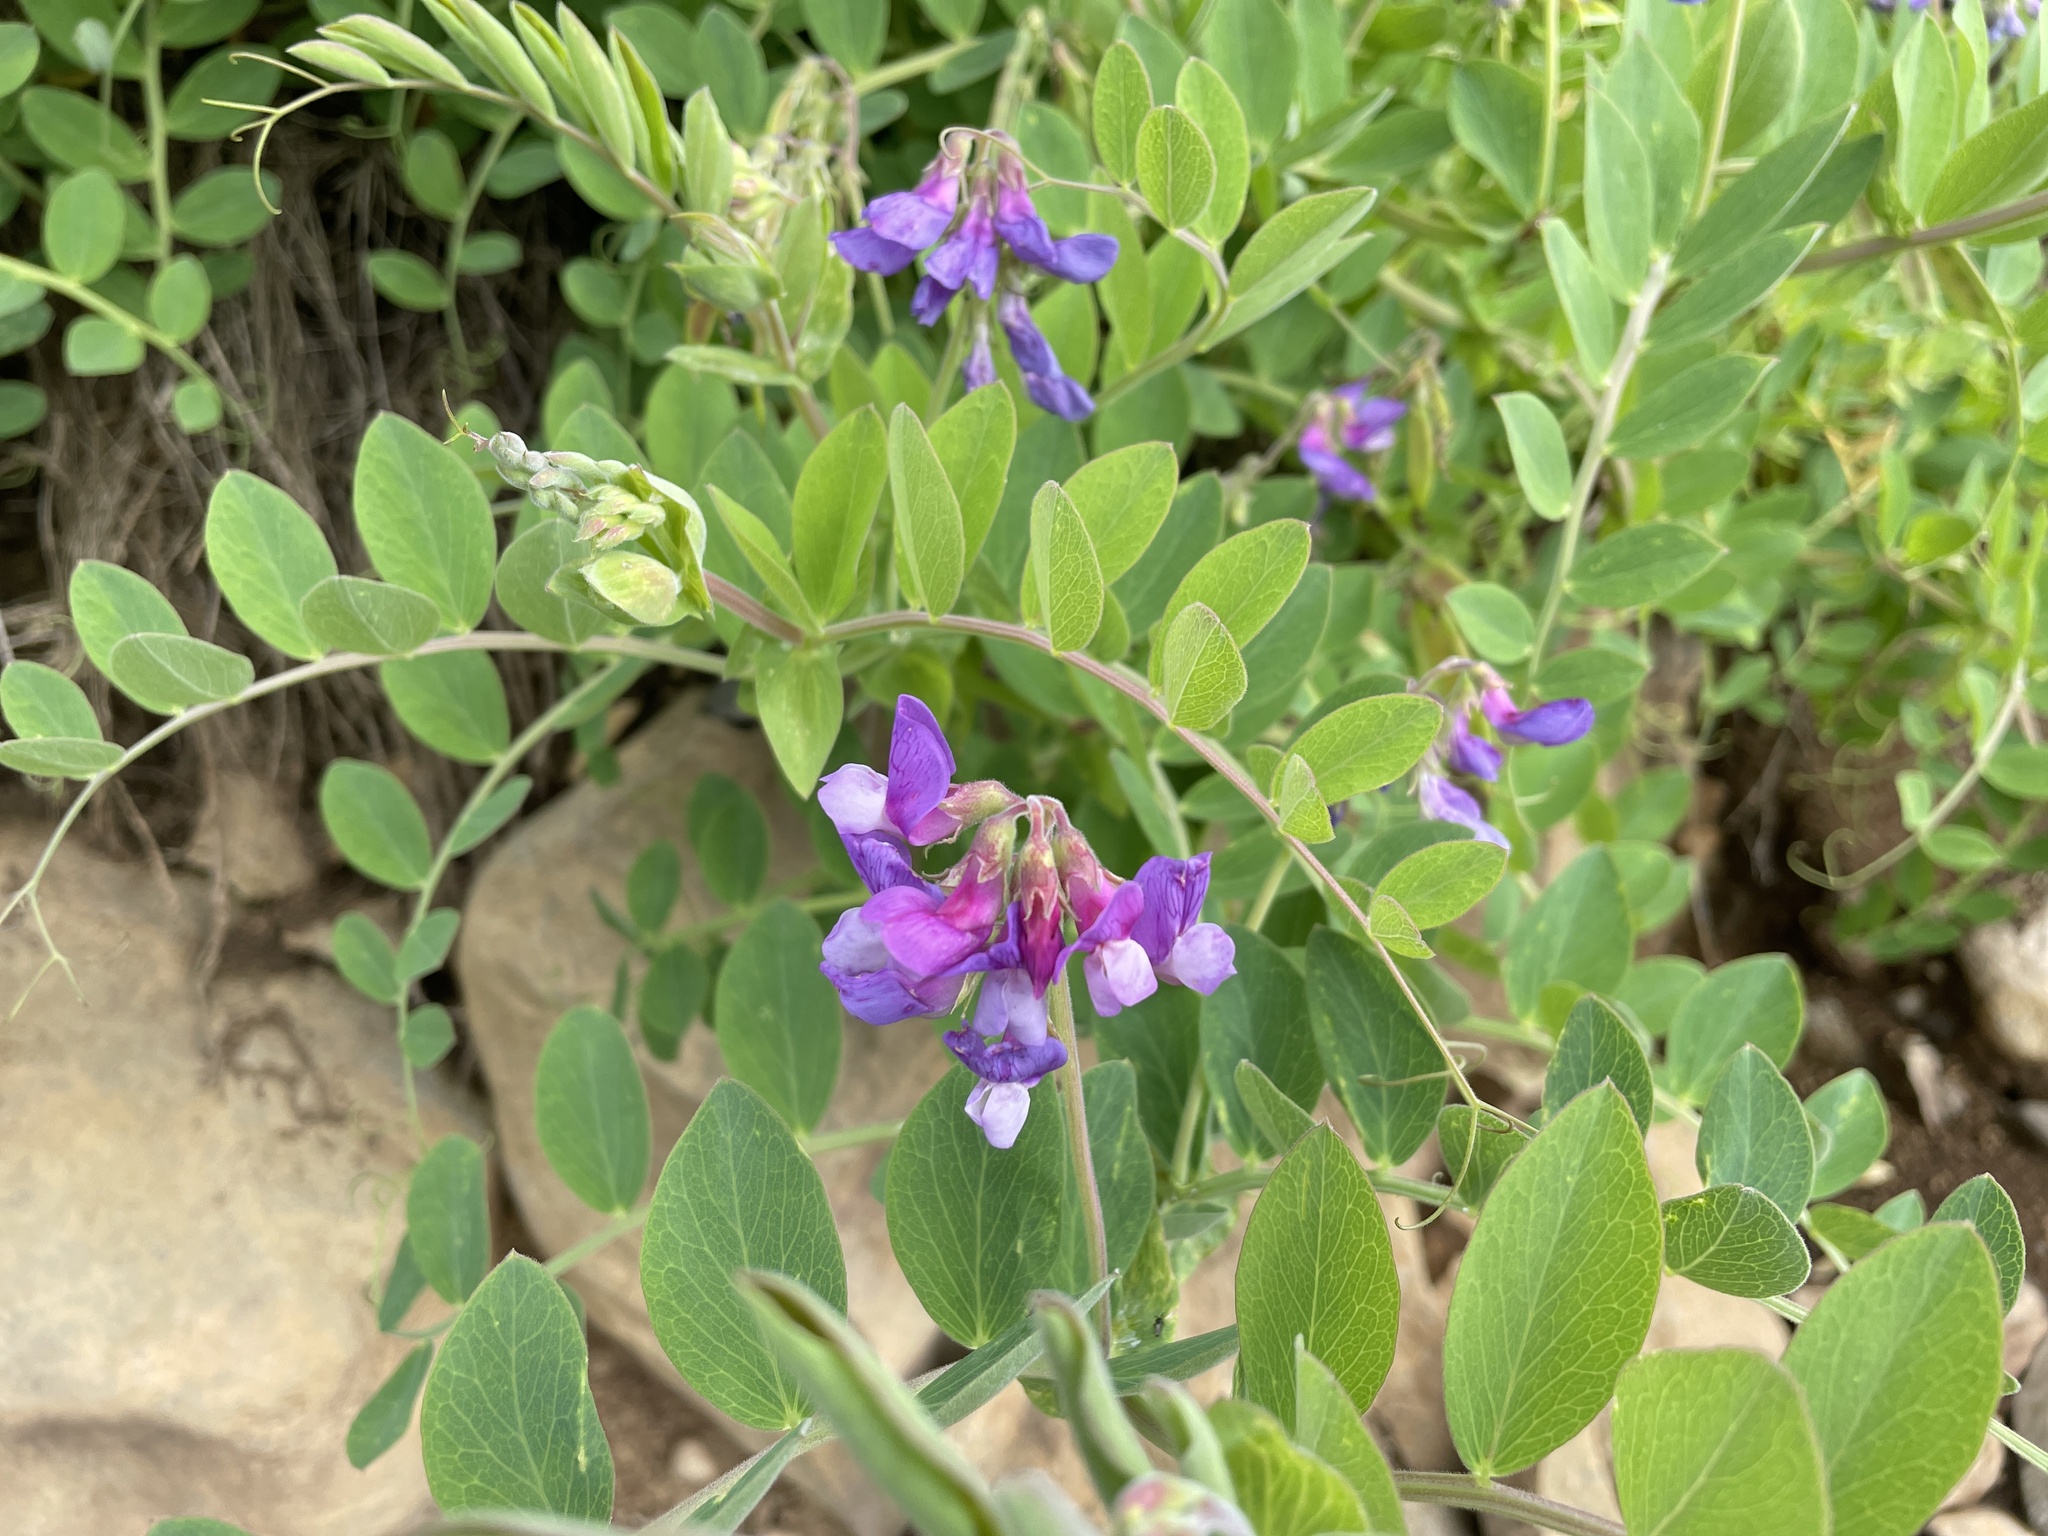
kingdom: Plantae
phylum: Tracheophyta
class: Magnoliopsida
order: Fabales
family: Fabaceae
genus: Lathyrus
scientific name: Lathyrus japonicus
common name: Sea pea
